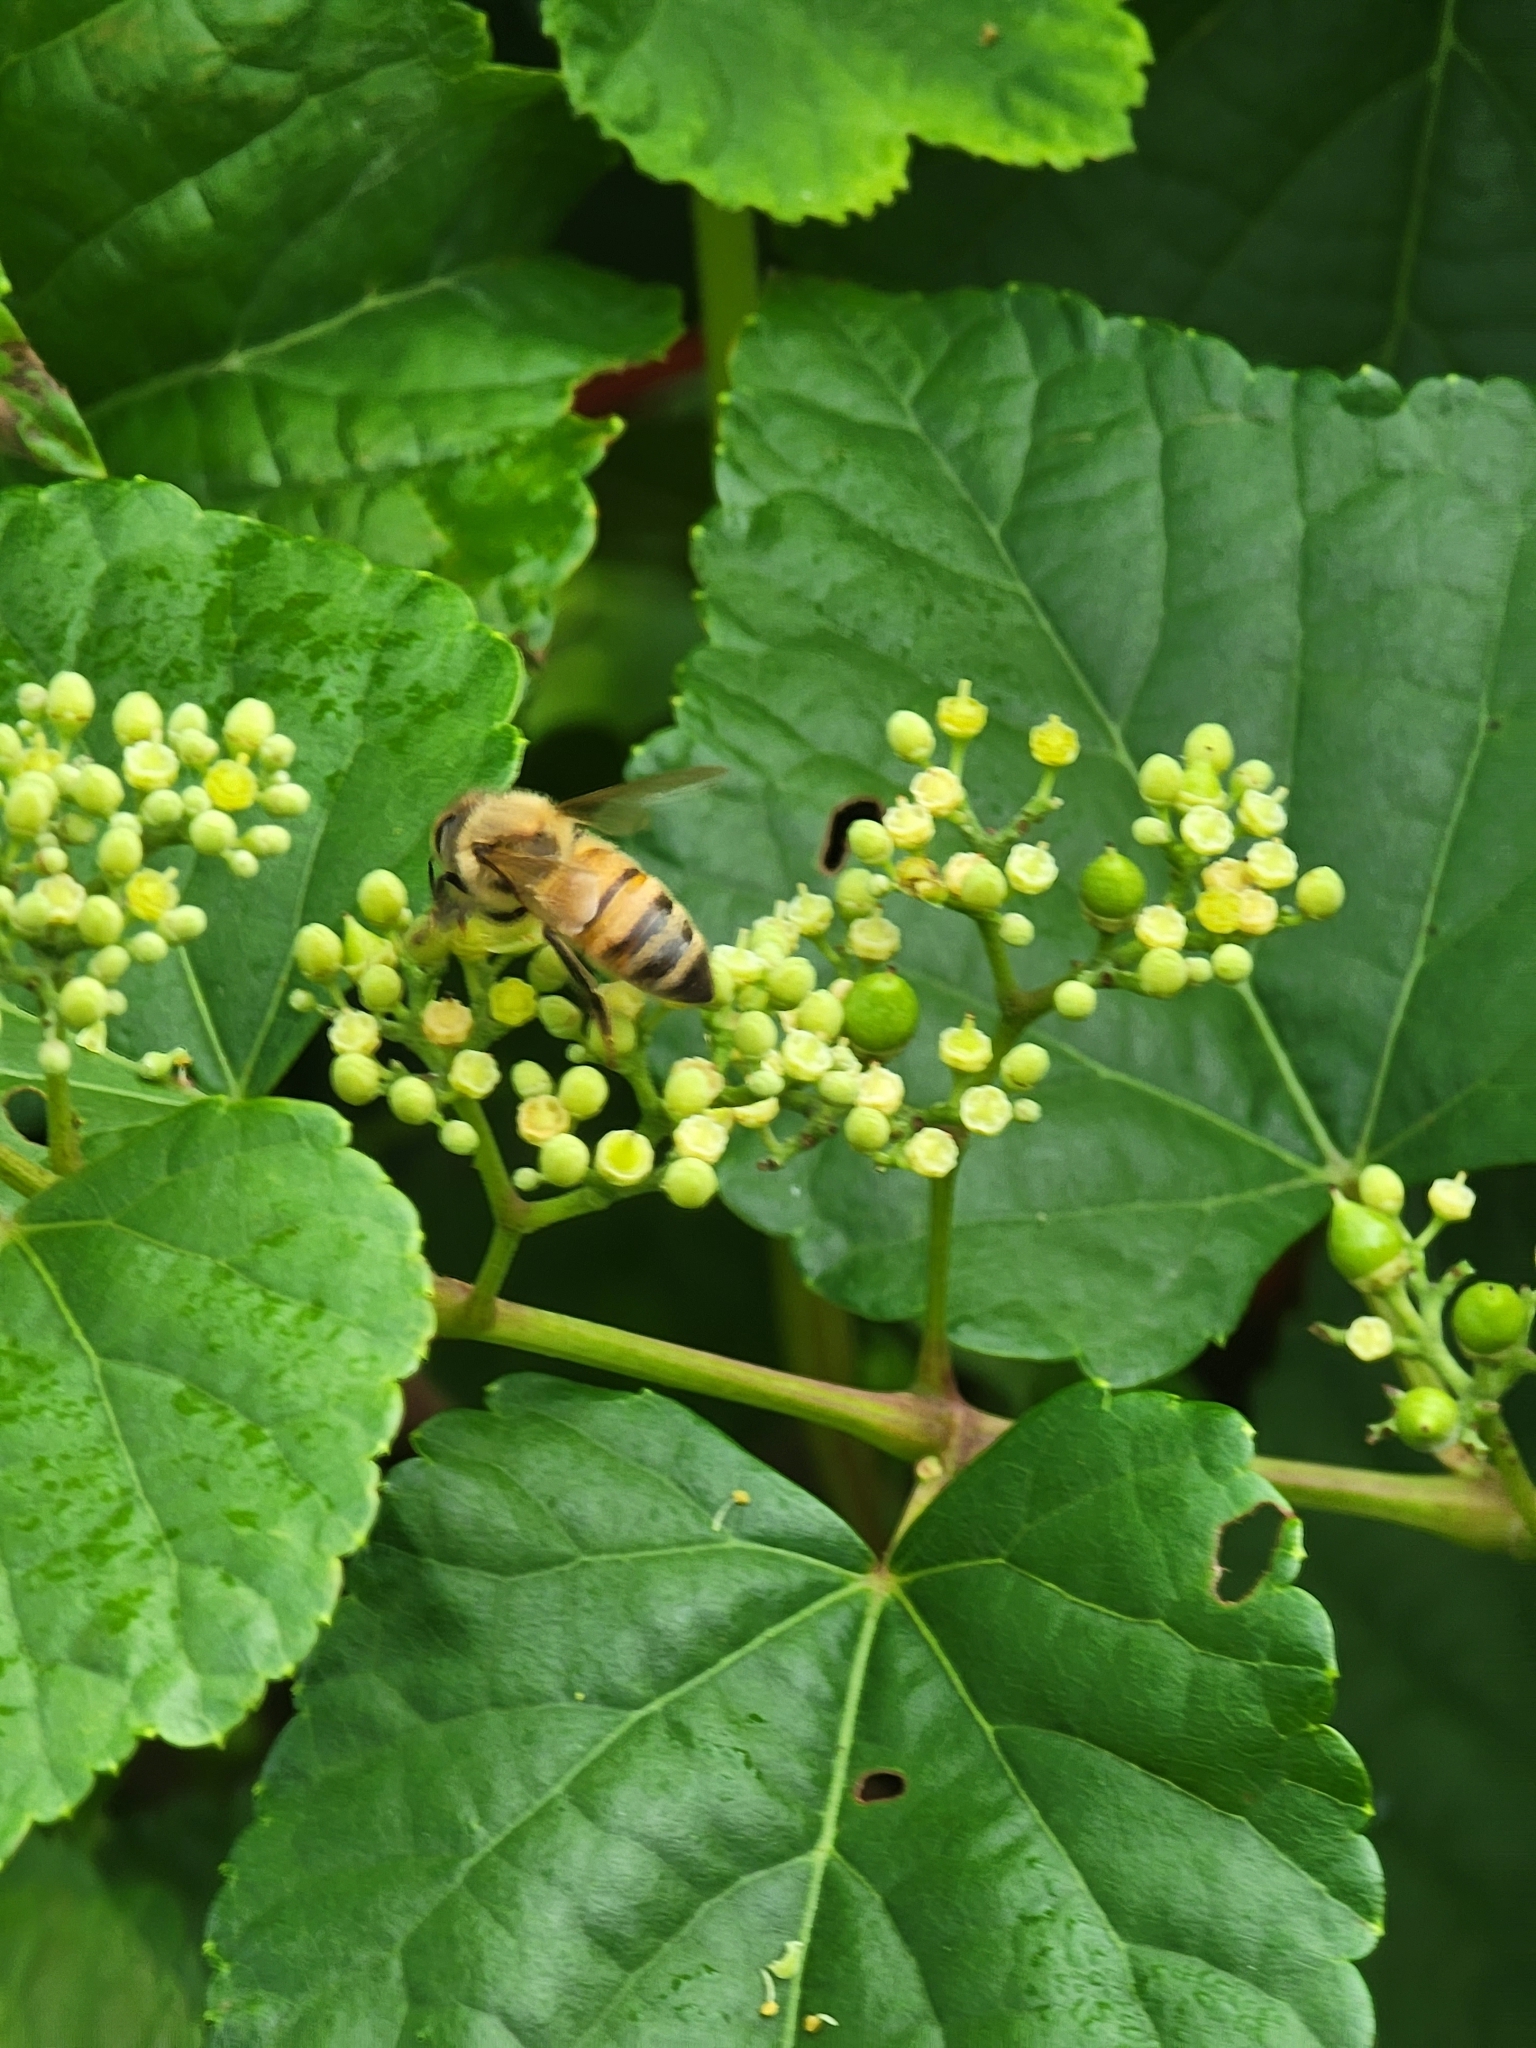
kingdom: Animalia
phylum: Arthropoda
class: Insecta
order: Hymenoptera
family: Apidae
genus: Apis
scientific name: Apis mellifera
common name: Honey bee
